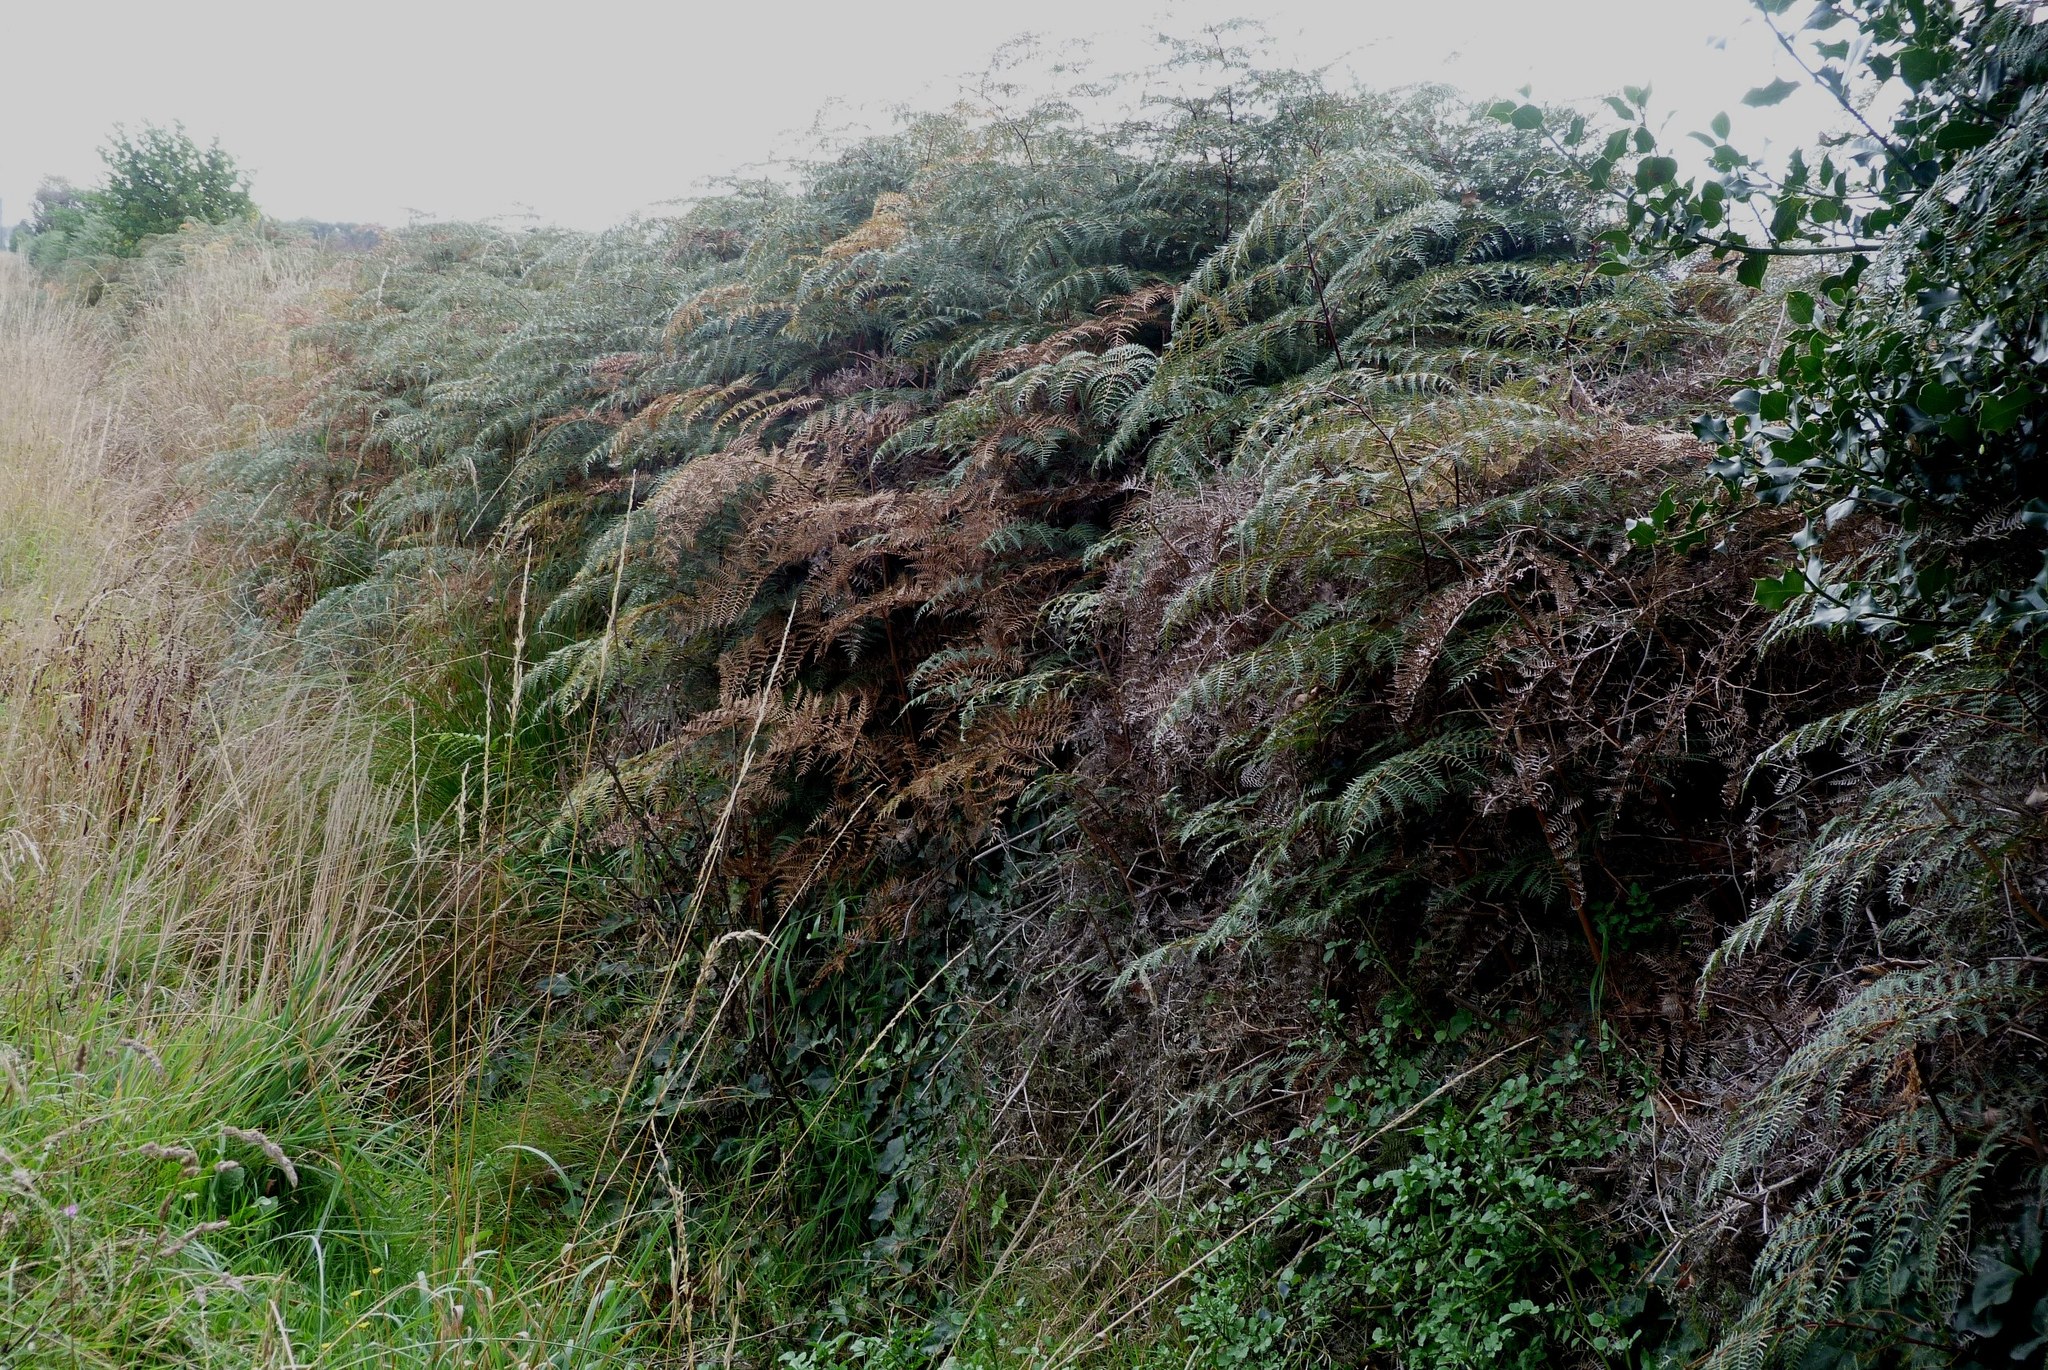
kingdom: Plantae
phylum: Tracheophyta
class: Polypodiopsida
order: Polypodiales
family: Dennstaedtiaceae
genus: Pteridium
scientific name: Pteridium esculentum
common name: Bracken fern
